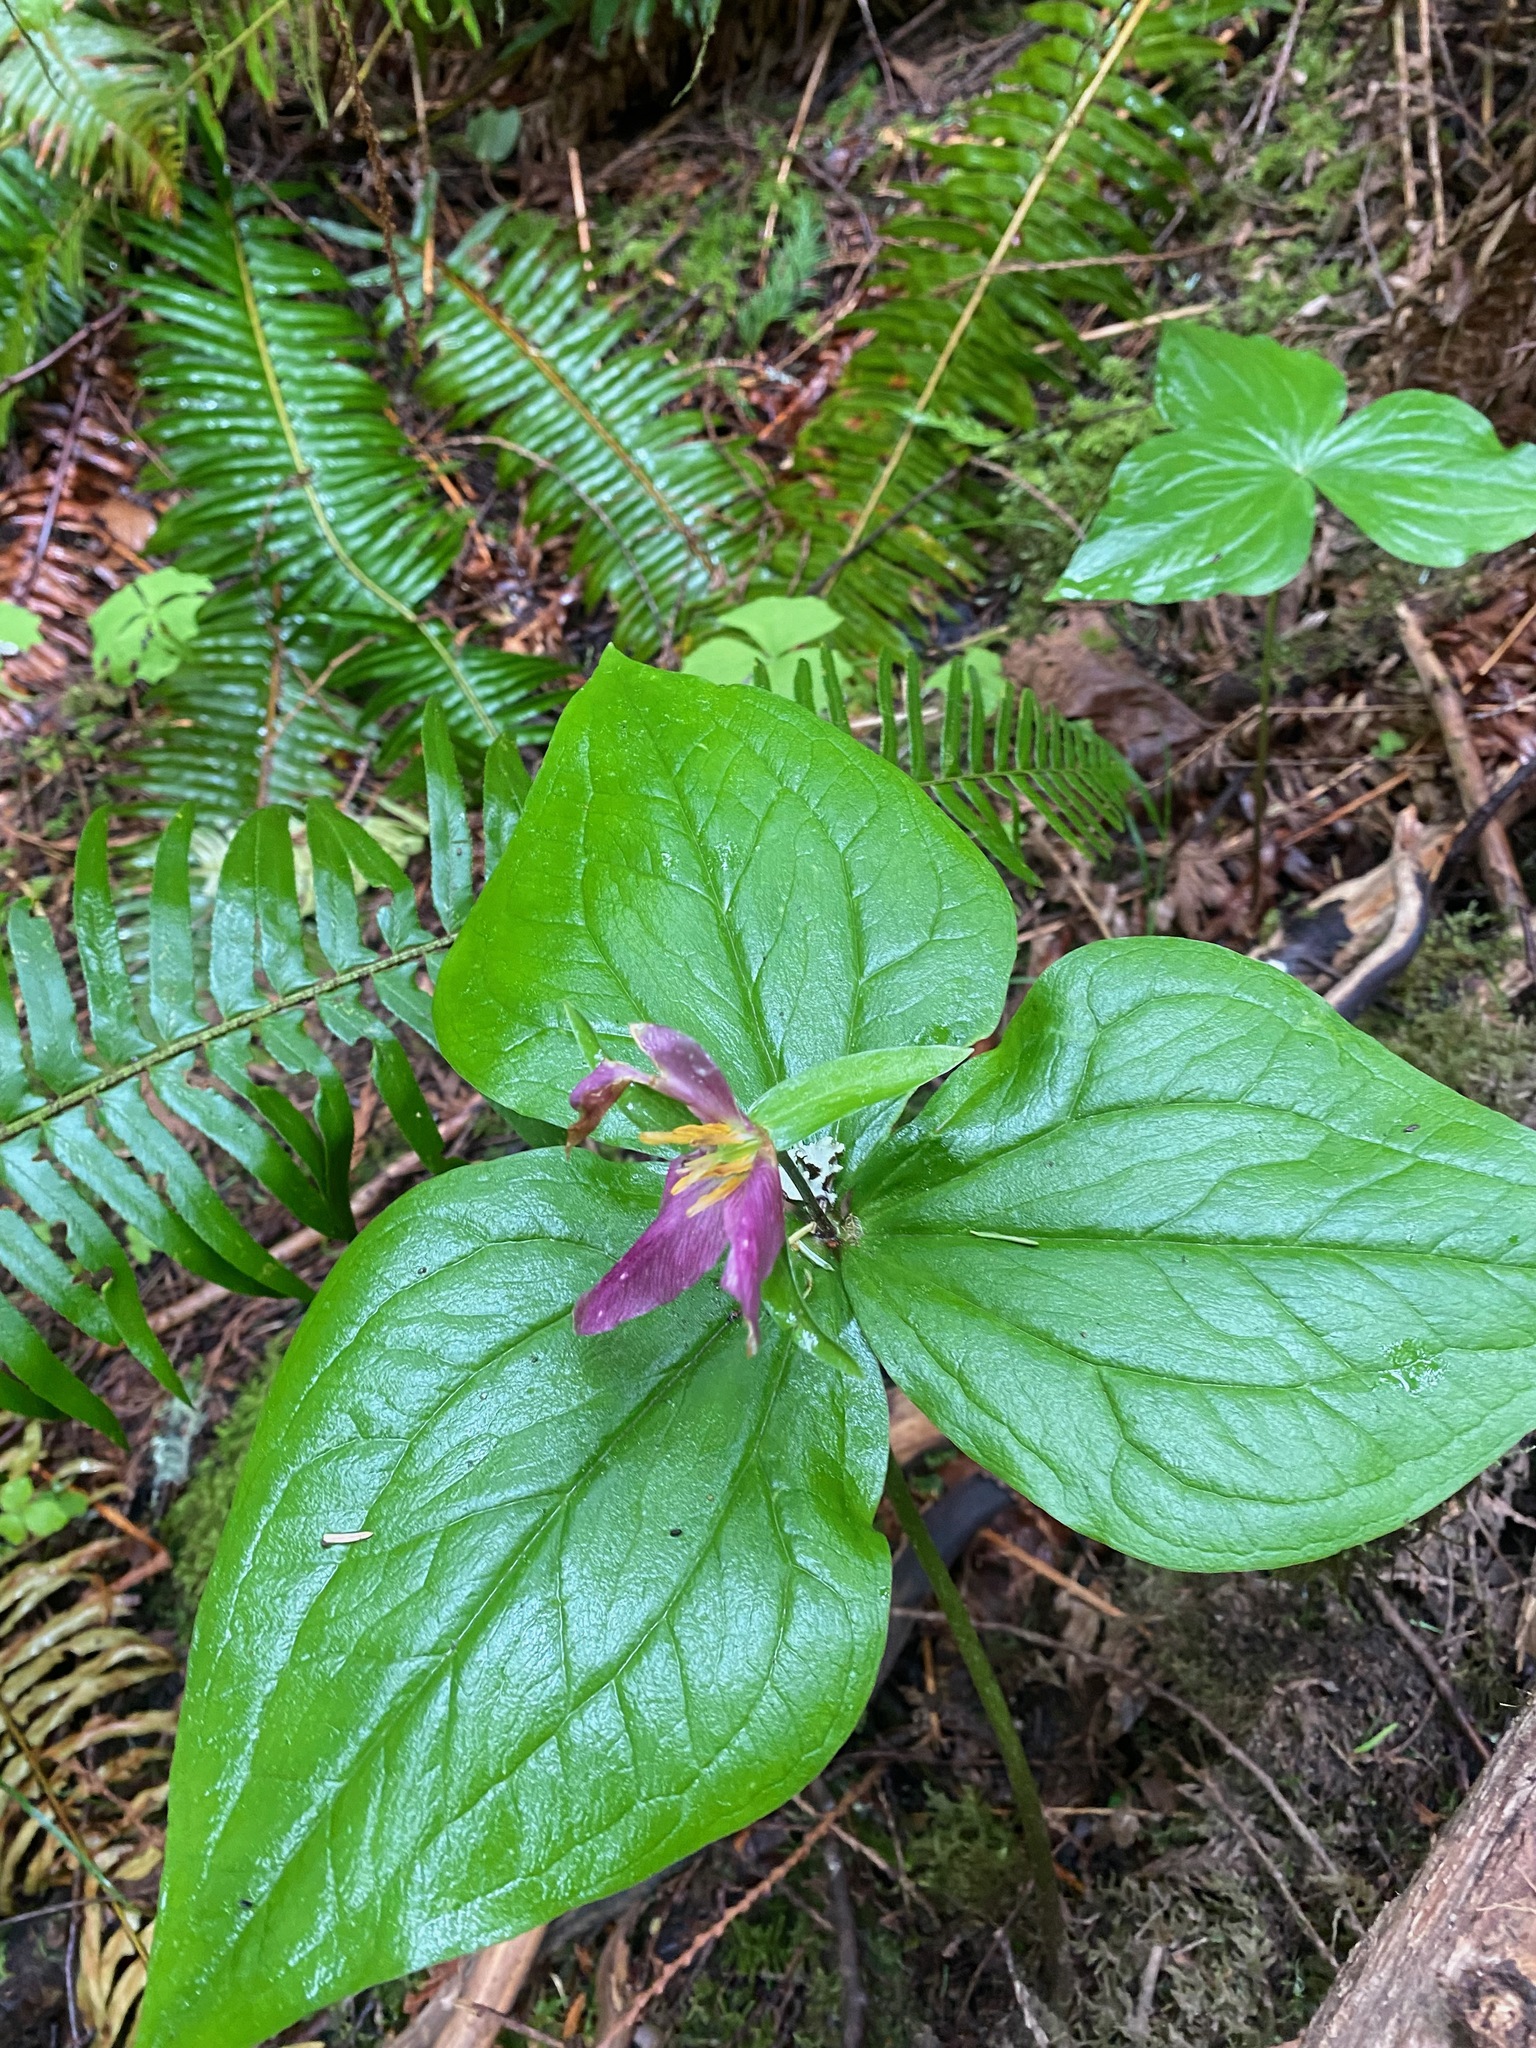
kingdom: Plantae
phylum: Tracheophyta
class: Liliopsida
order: Liliales
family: Melanthiaceae
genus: Trillium
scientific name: Trillium ovatum
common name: Pacific trillium
